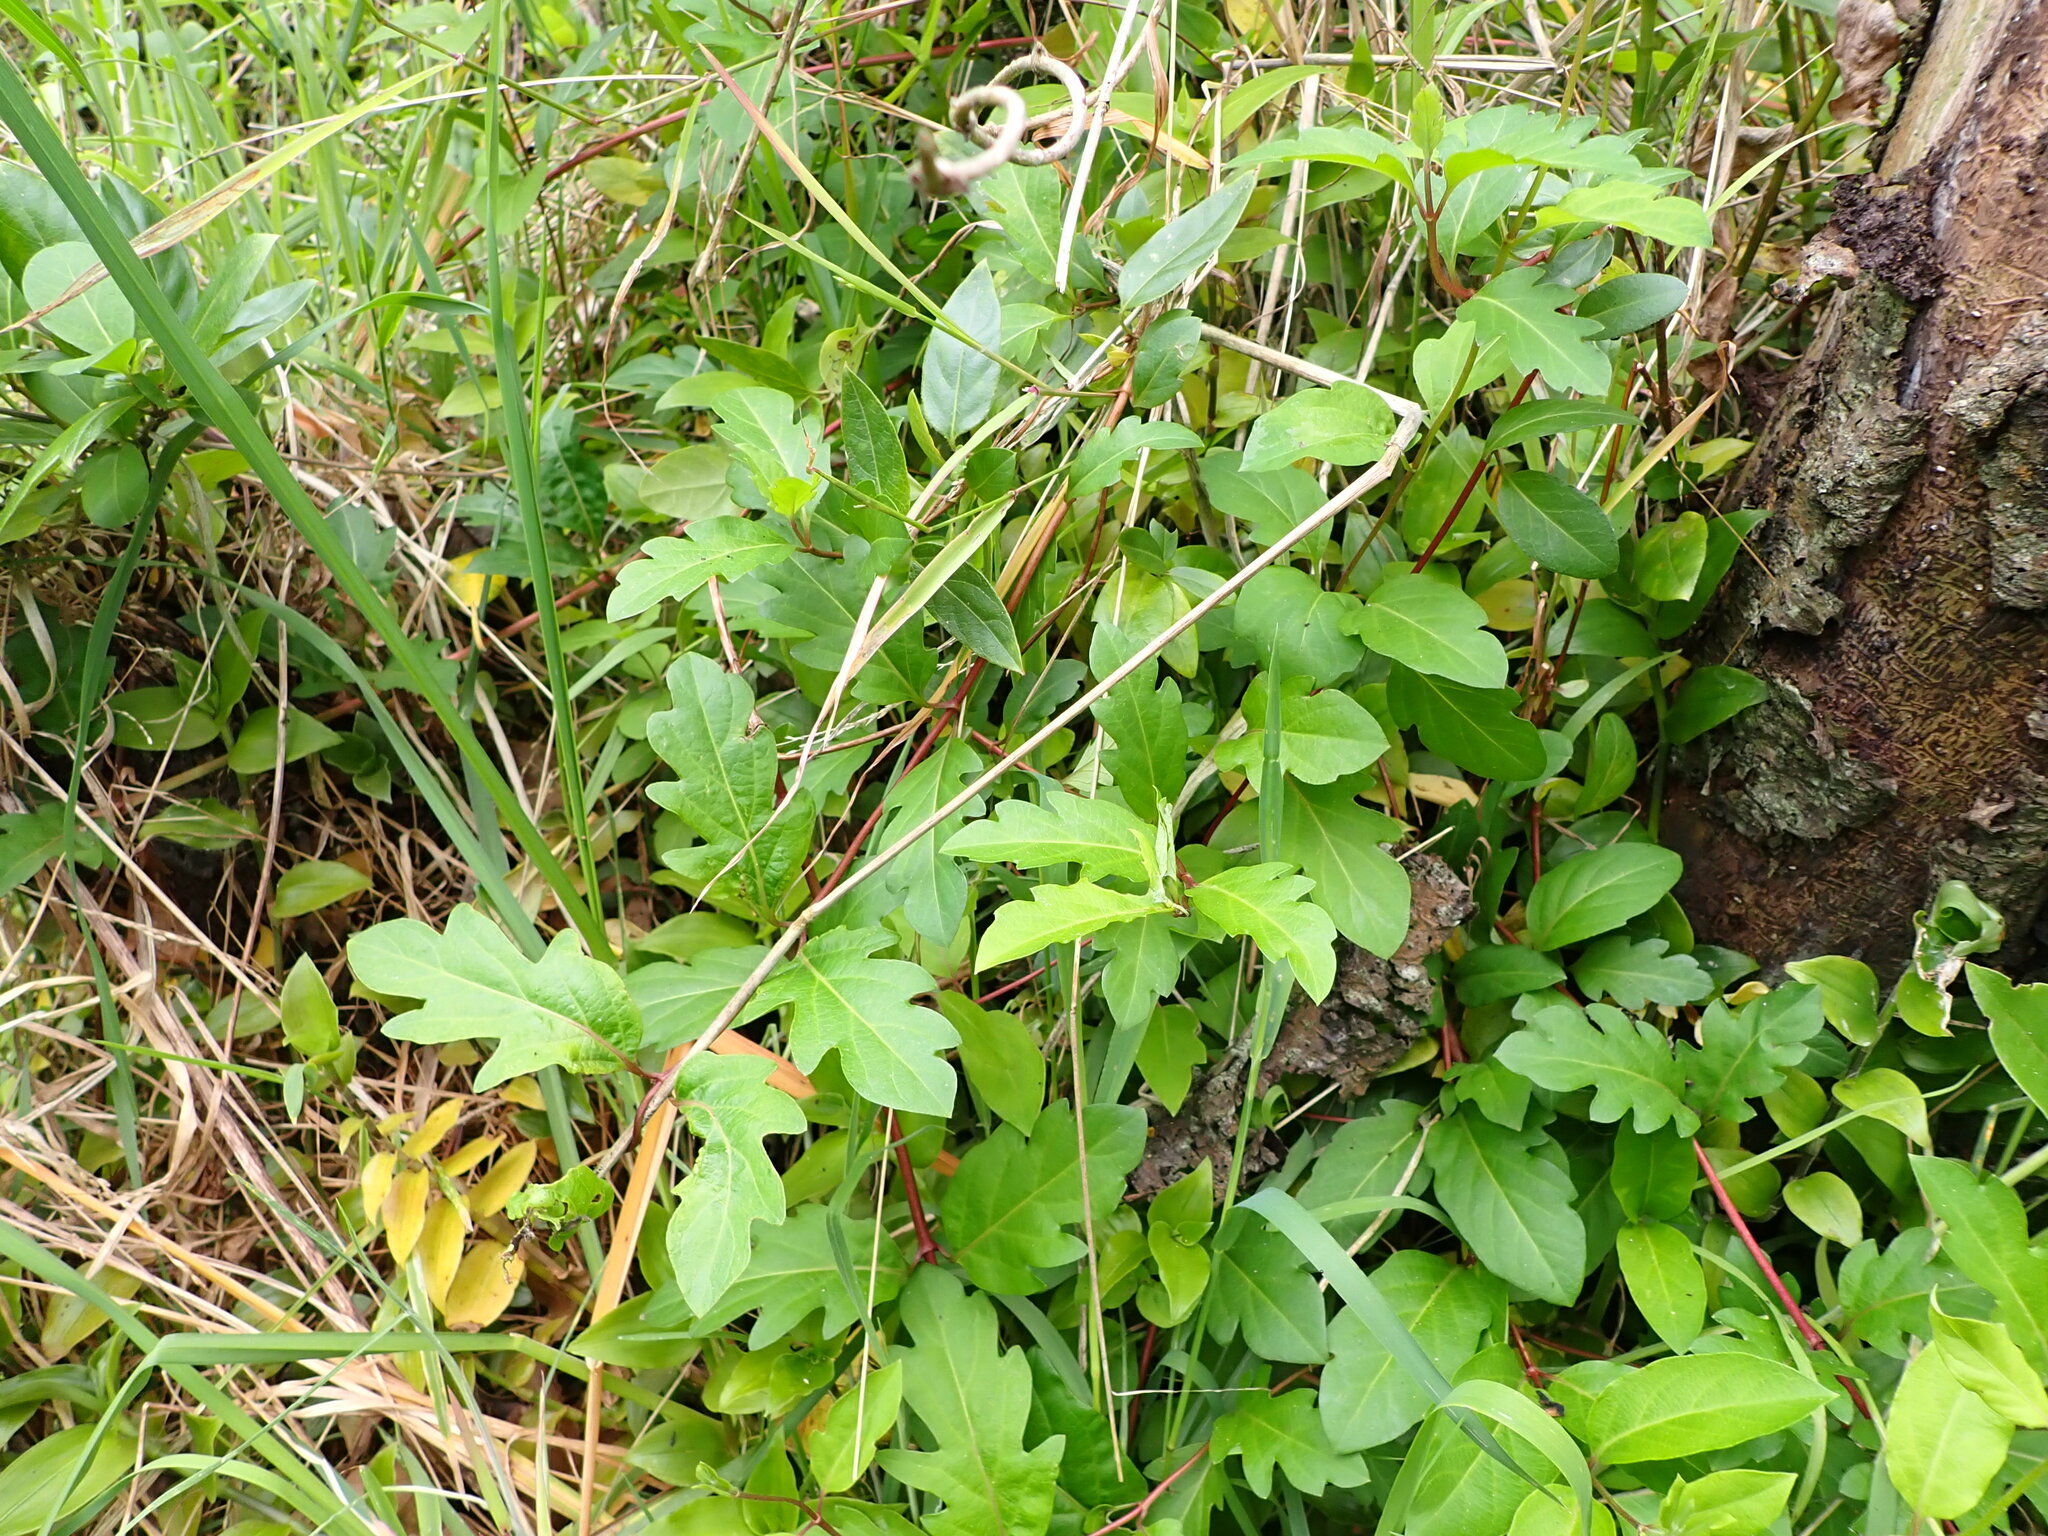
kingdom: Plantae
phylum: Tracheophyta
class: Magnoliopsida
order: Dipsacales
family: Caprifoliaceae
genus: Lonicera
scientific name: Lonicera japonica
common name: Japanese honeysuckle
